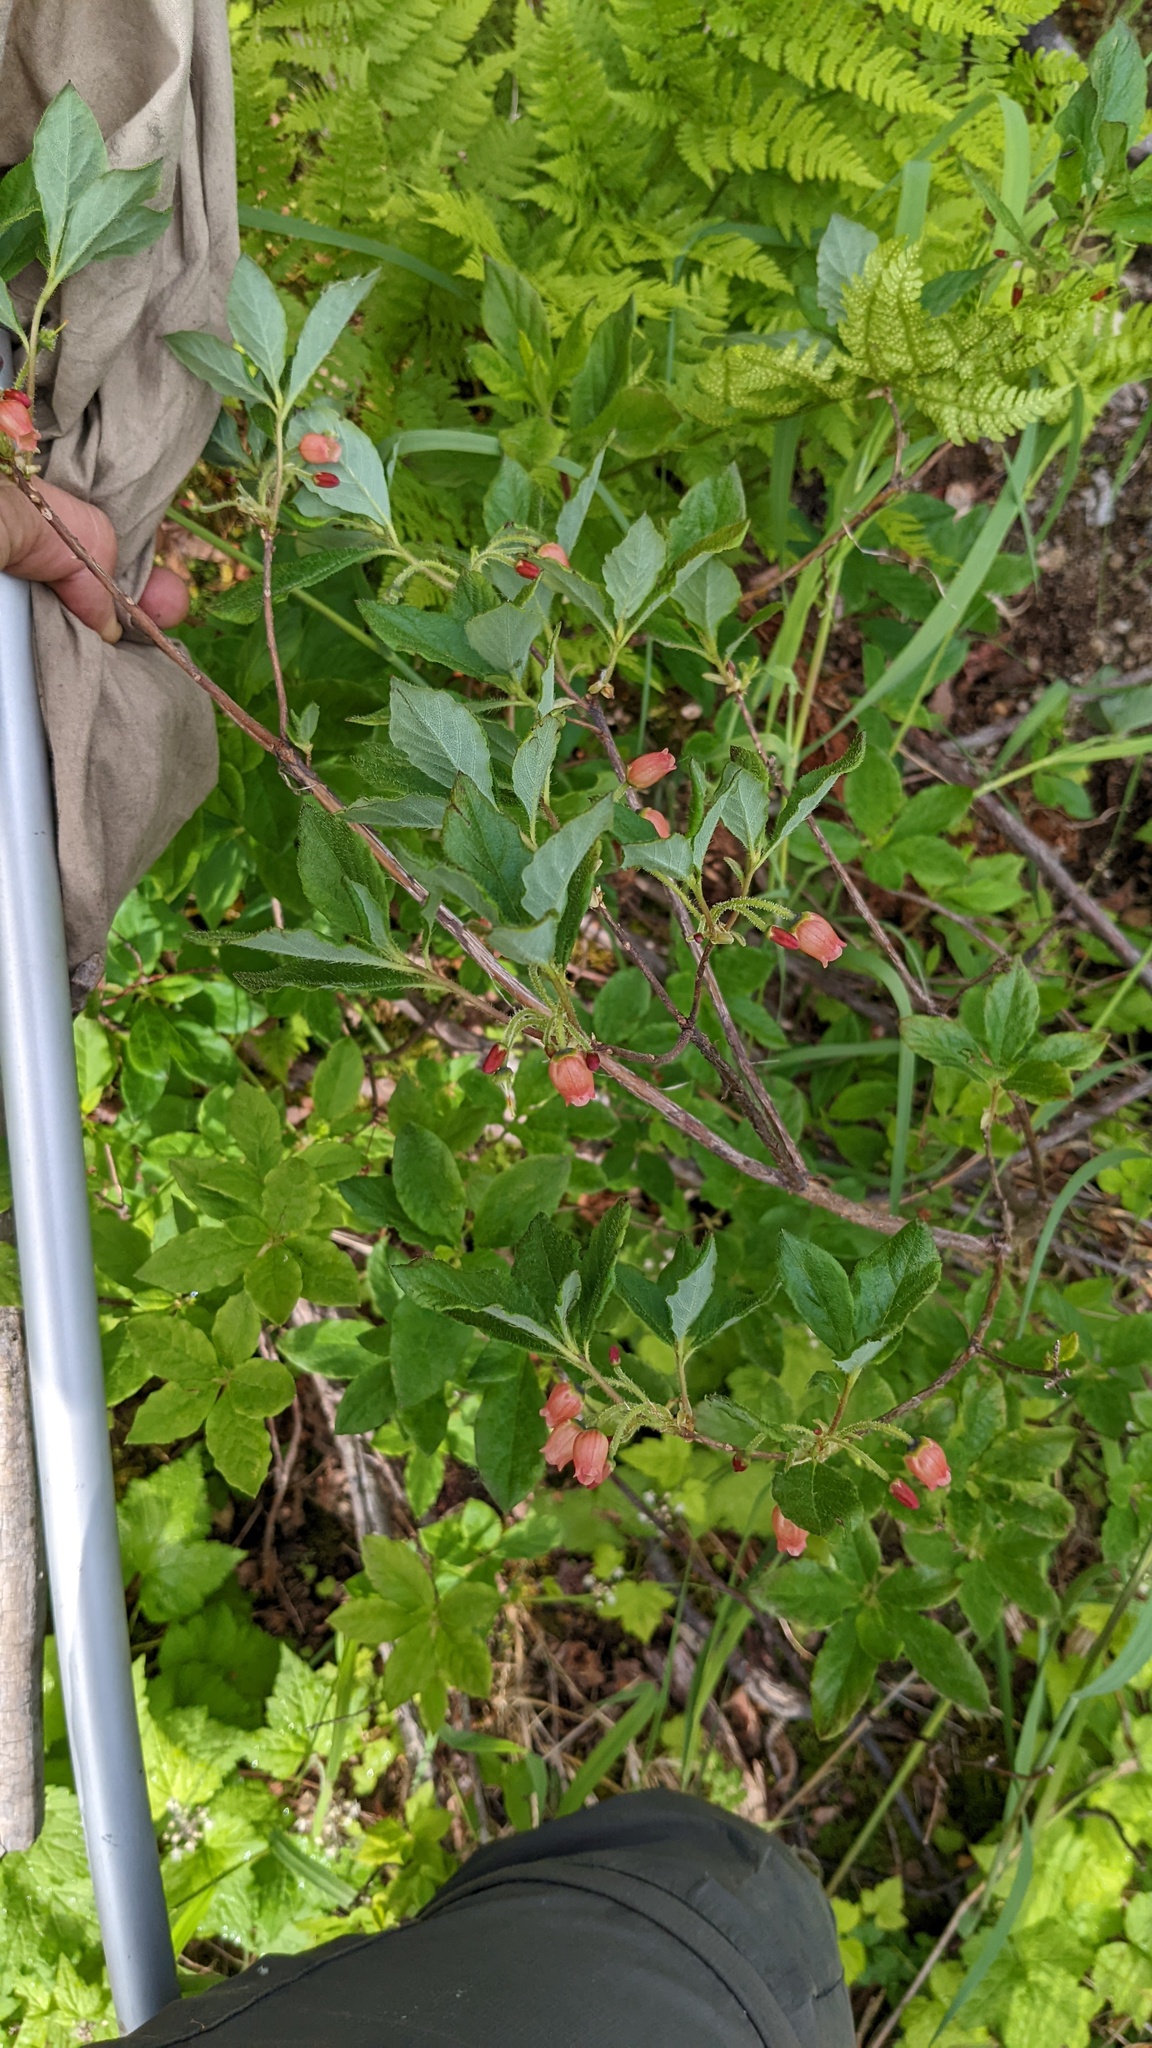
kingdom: Plantae
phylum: Tracheophyta
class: Magnoliopsida
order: Ericales
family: Ericaceae
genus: Rhododendron
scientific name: Rhododendron menziesii
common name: Pacific menziesia
